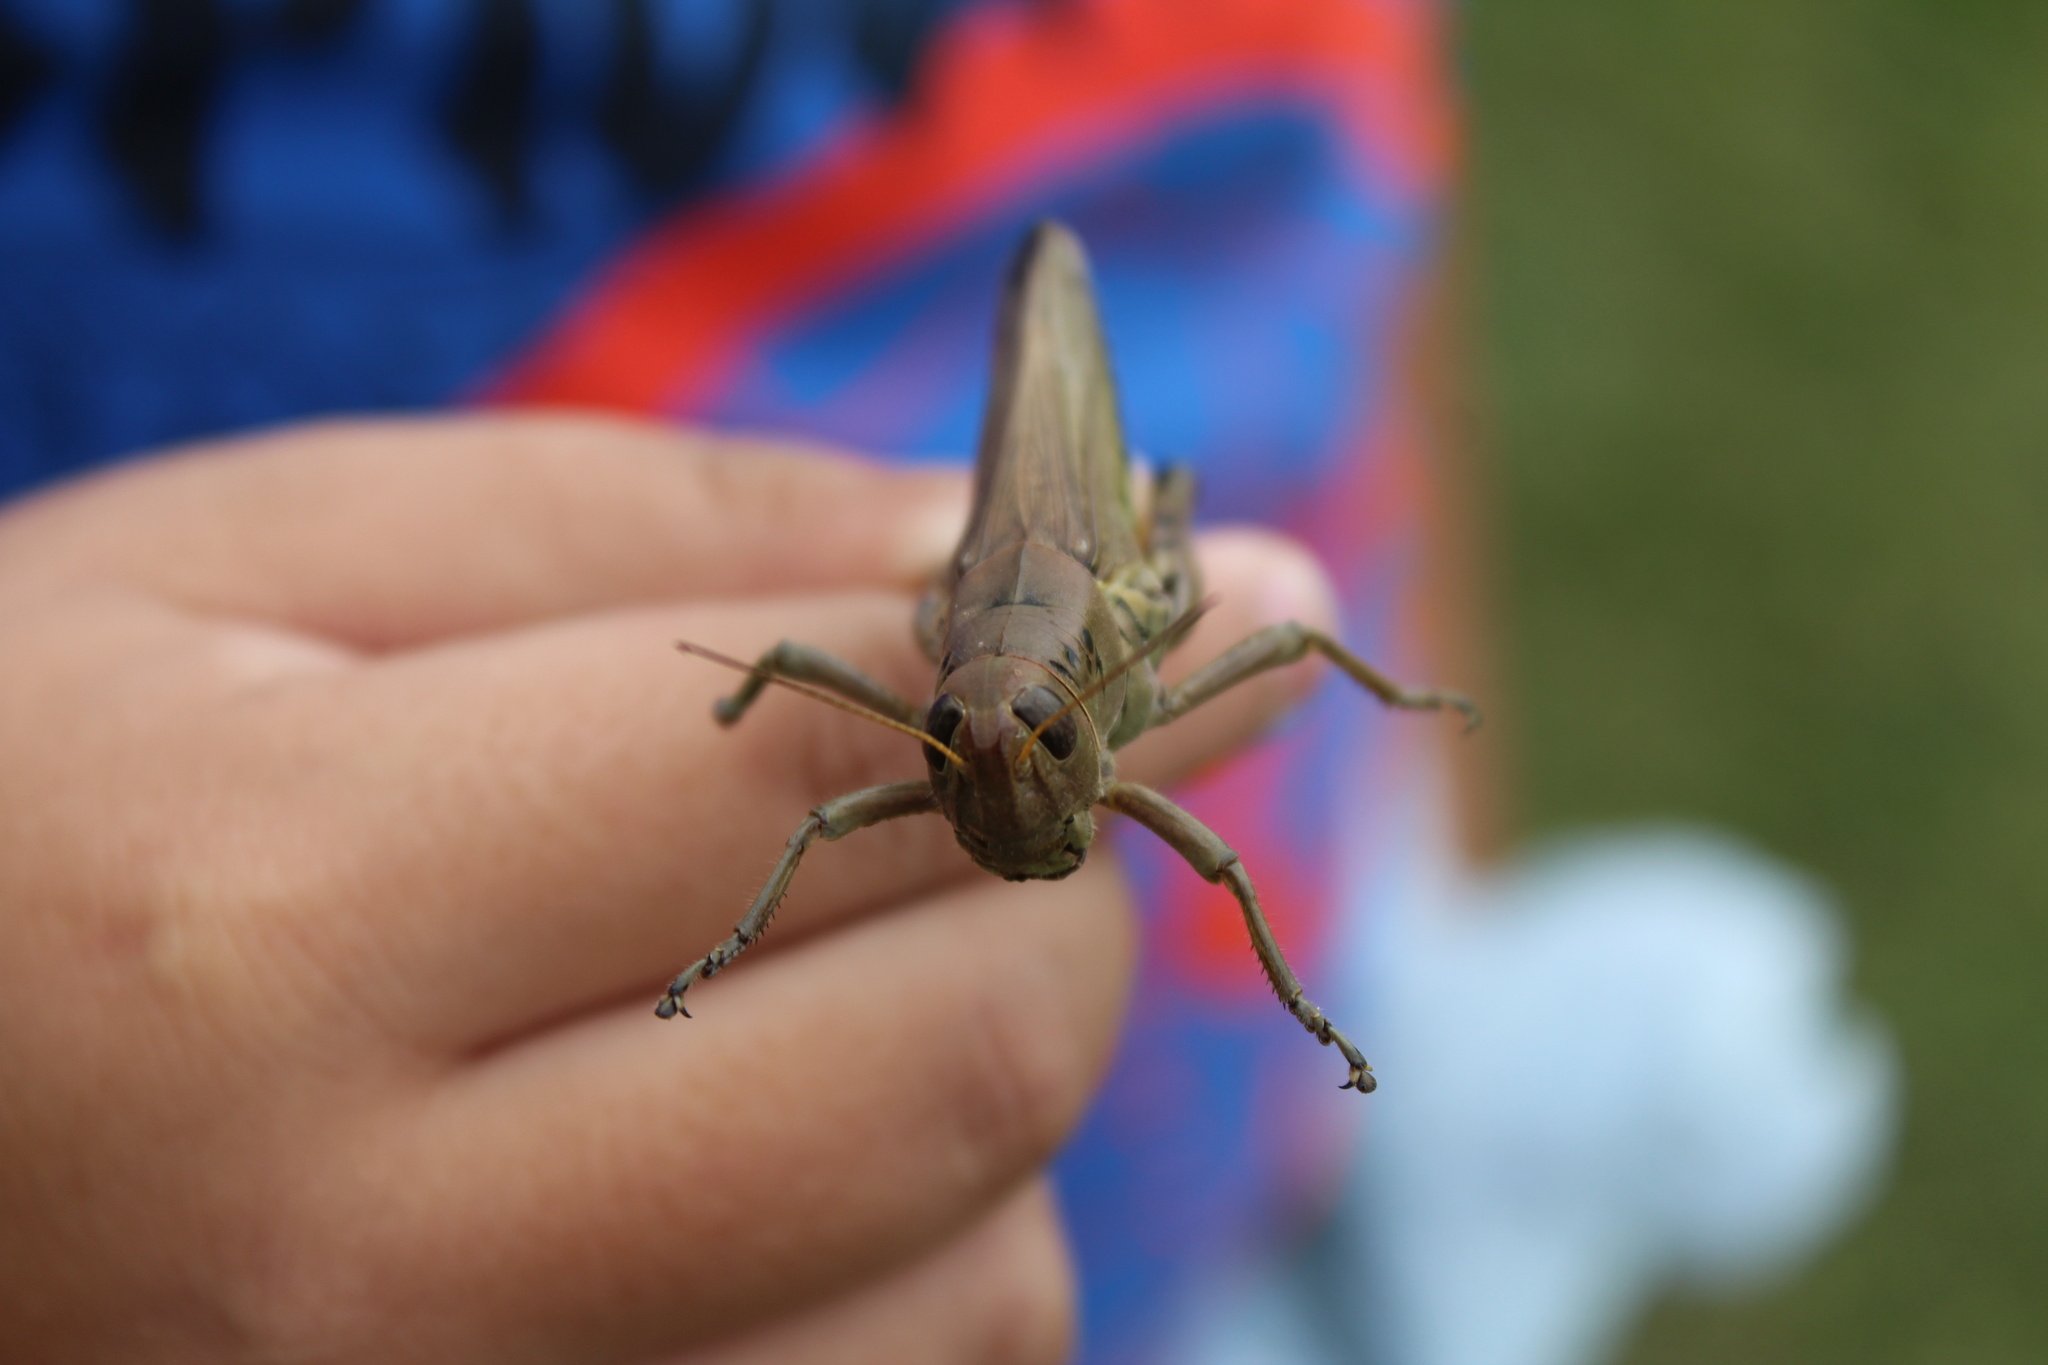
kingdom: Animalia
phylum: Arthropoda
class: Insecta
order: Orthoptera
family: Acrididae
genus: Melanoplus
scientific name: Melanoplus differentialis
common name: Differential grasshopper
